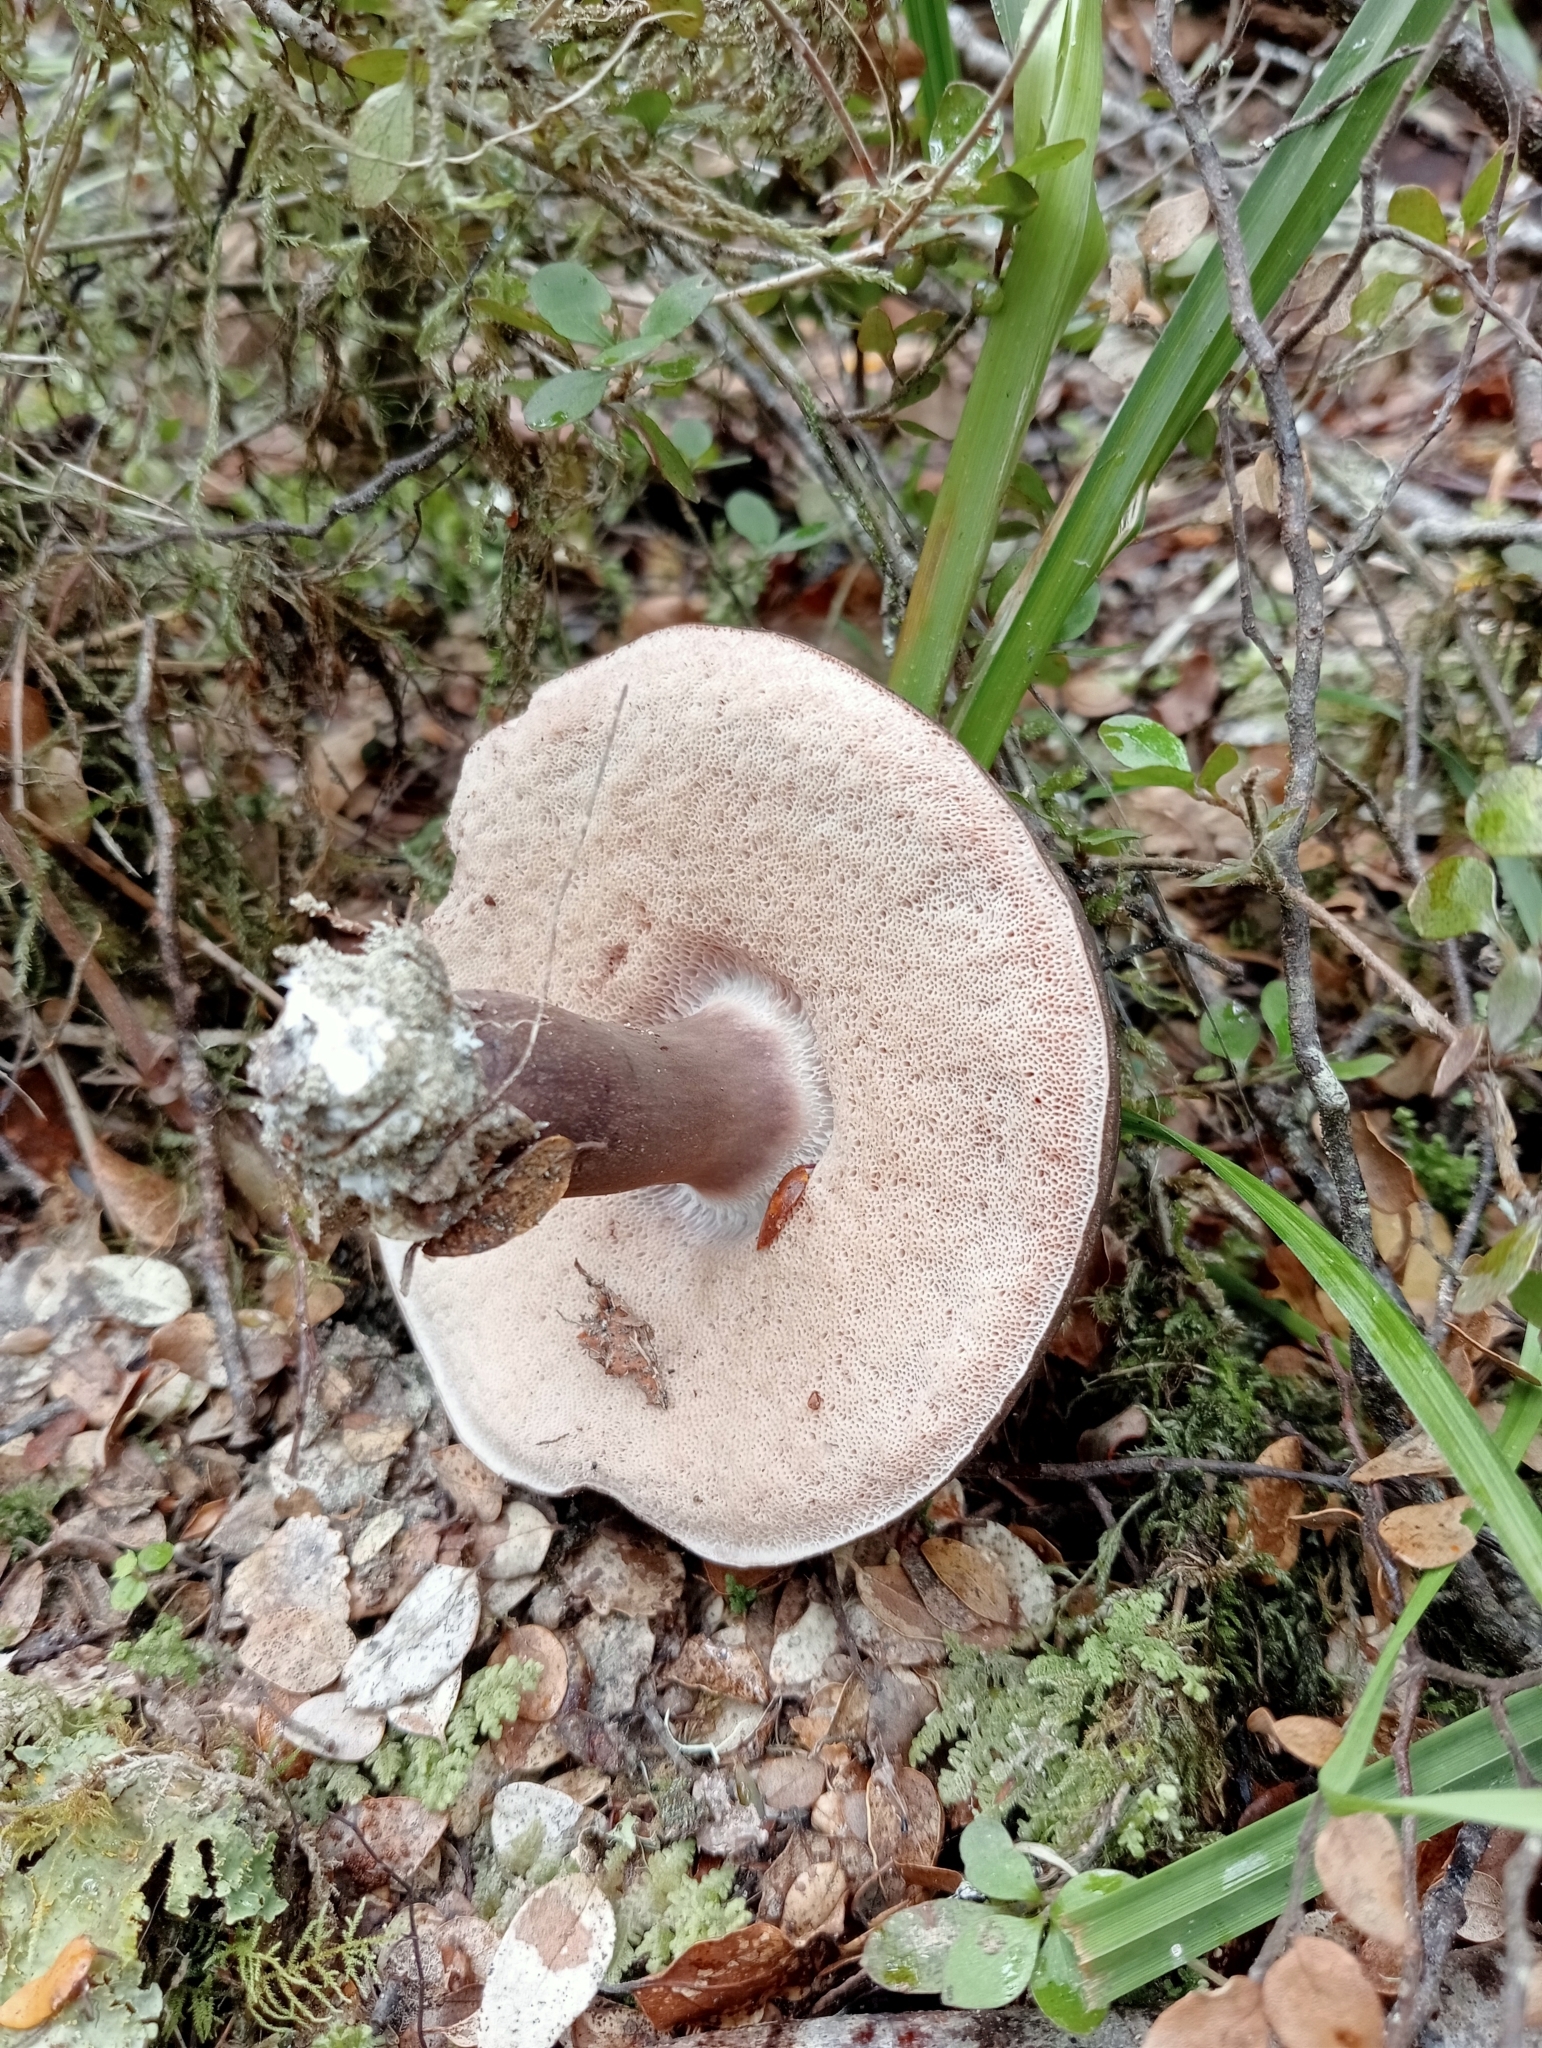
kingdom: Fungi
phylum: Basidiomycota
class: Agaricomycetes
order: Boletales
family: Boletaceae
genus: Porphyrellus
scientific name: Porphyrellus formosus
